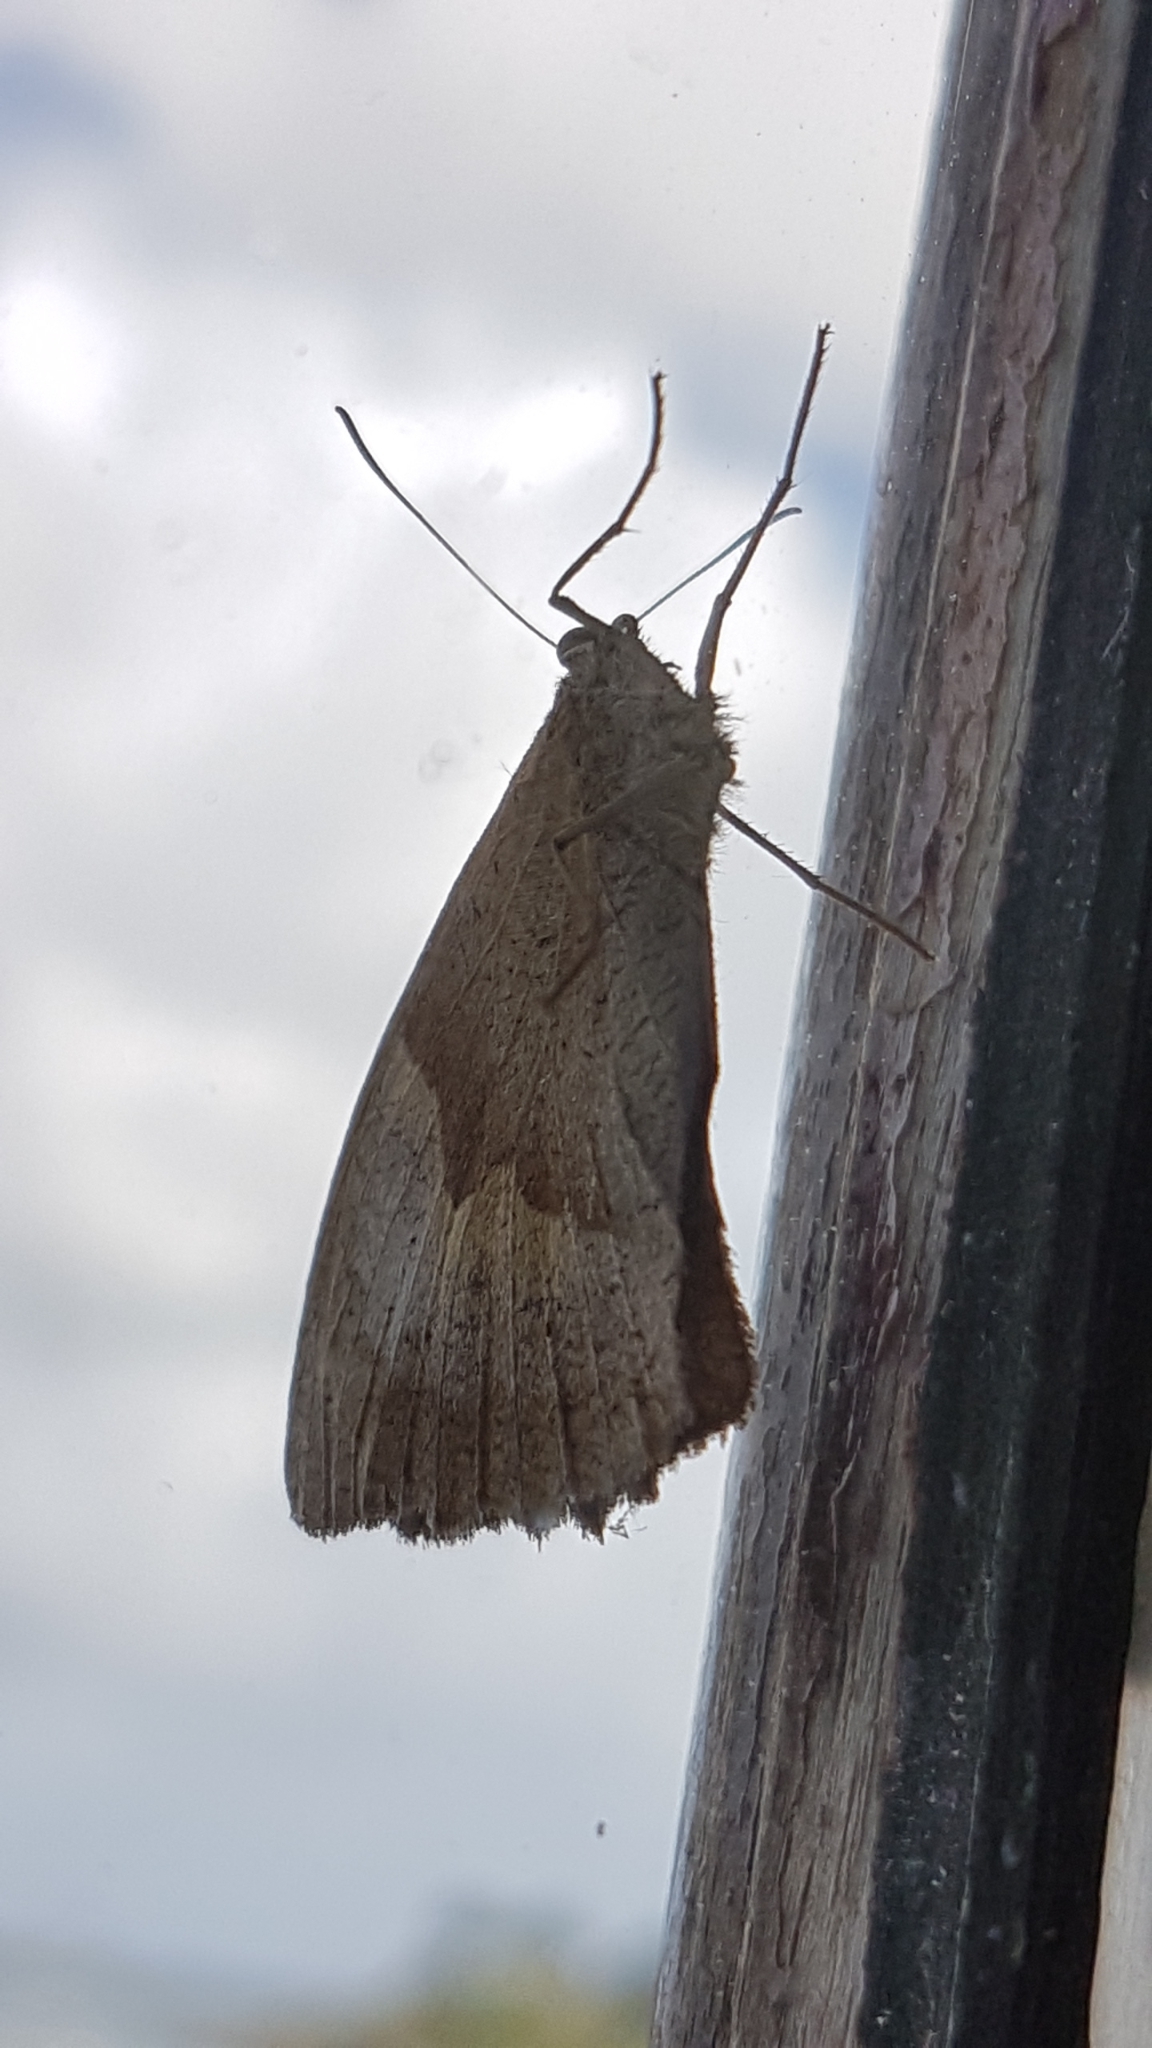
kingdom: Animalia
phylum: Arthropoda
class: Insecta
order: Lepidoptera
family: Nymphalidae
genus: Maniola
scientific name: Maniola jurtina
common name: Meadow brown
